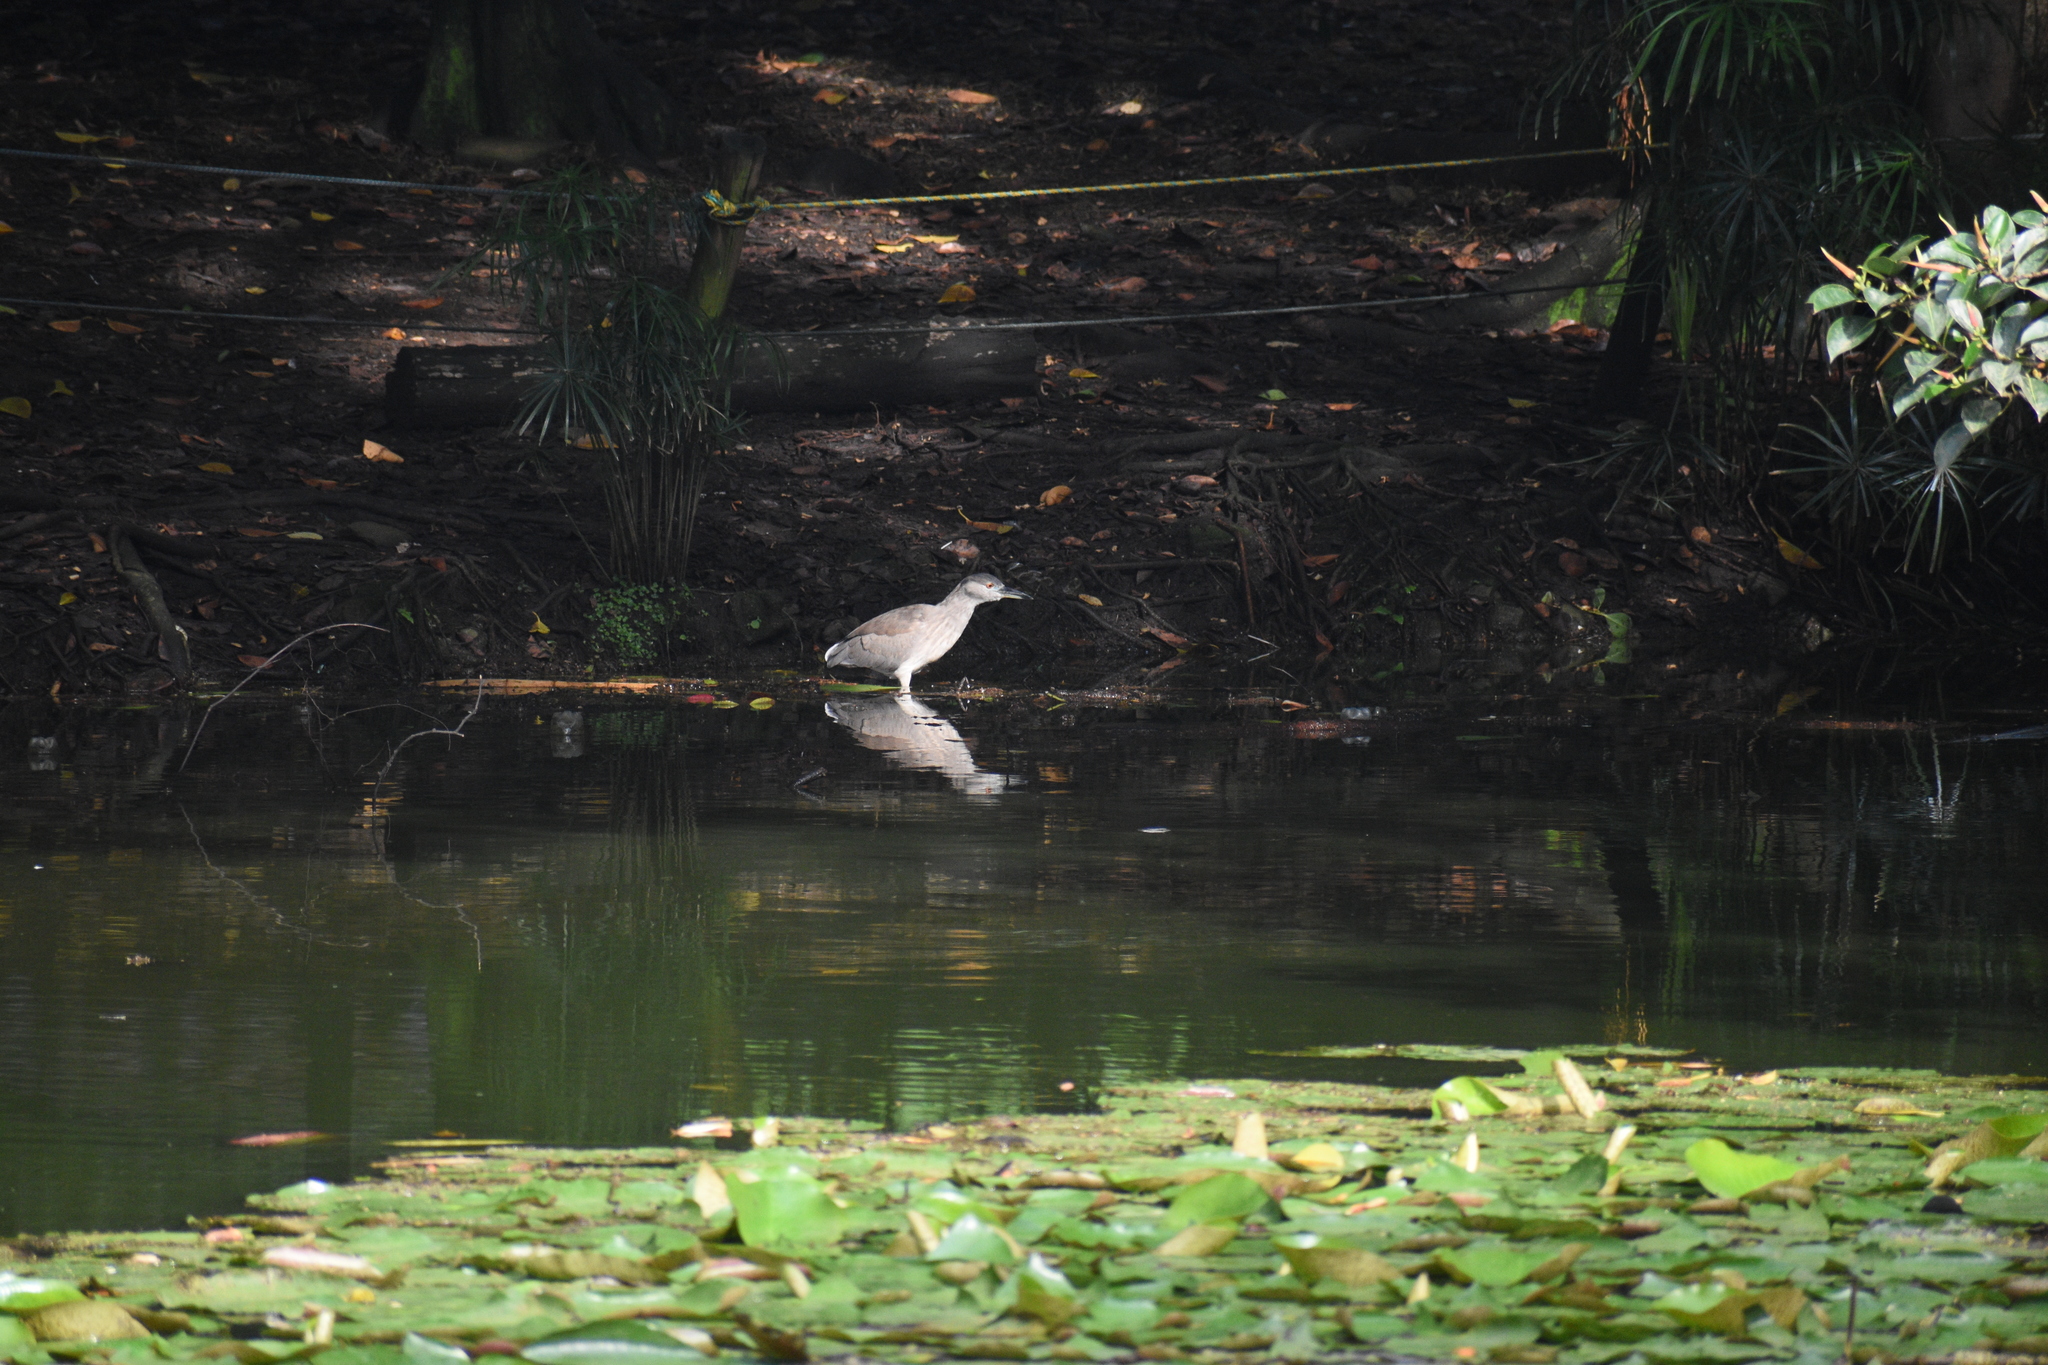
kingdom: Animalia
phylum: Chordata
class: Aves
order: Pelecaniformes
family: Ardeidae
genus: Nycticorax
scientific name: Nycticorax nycticorax
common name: Black-crowned night heron
